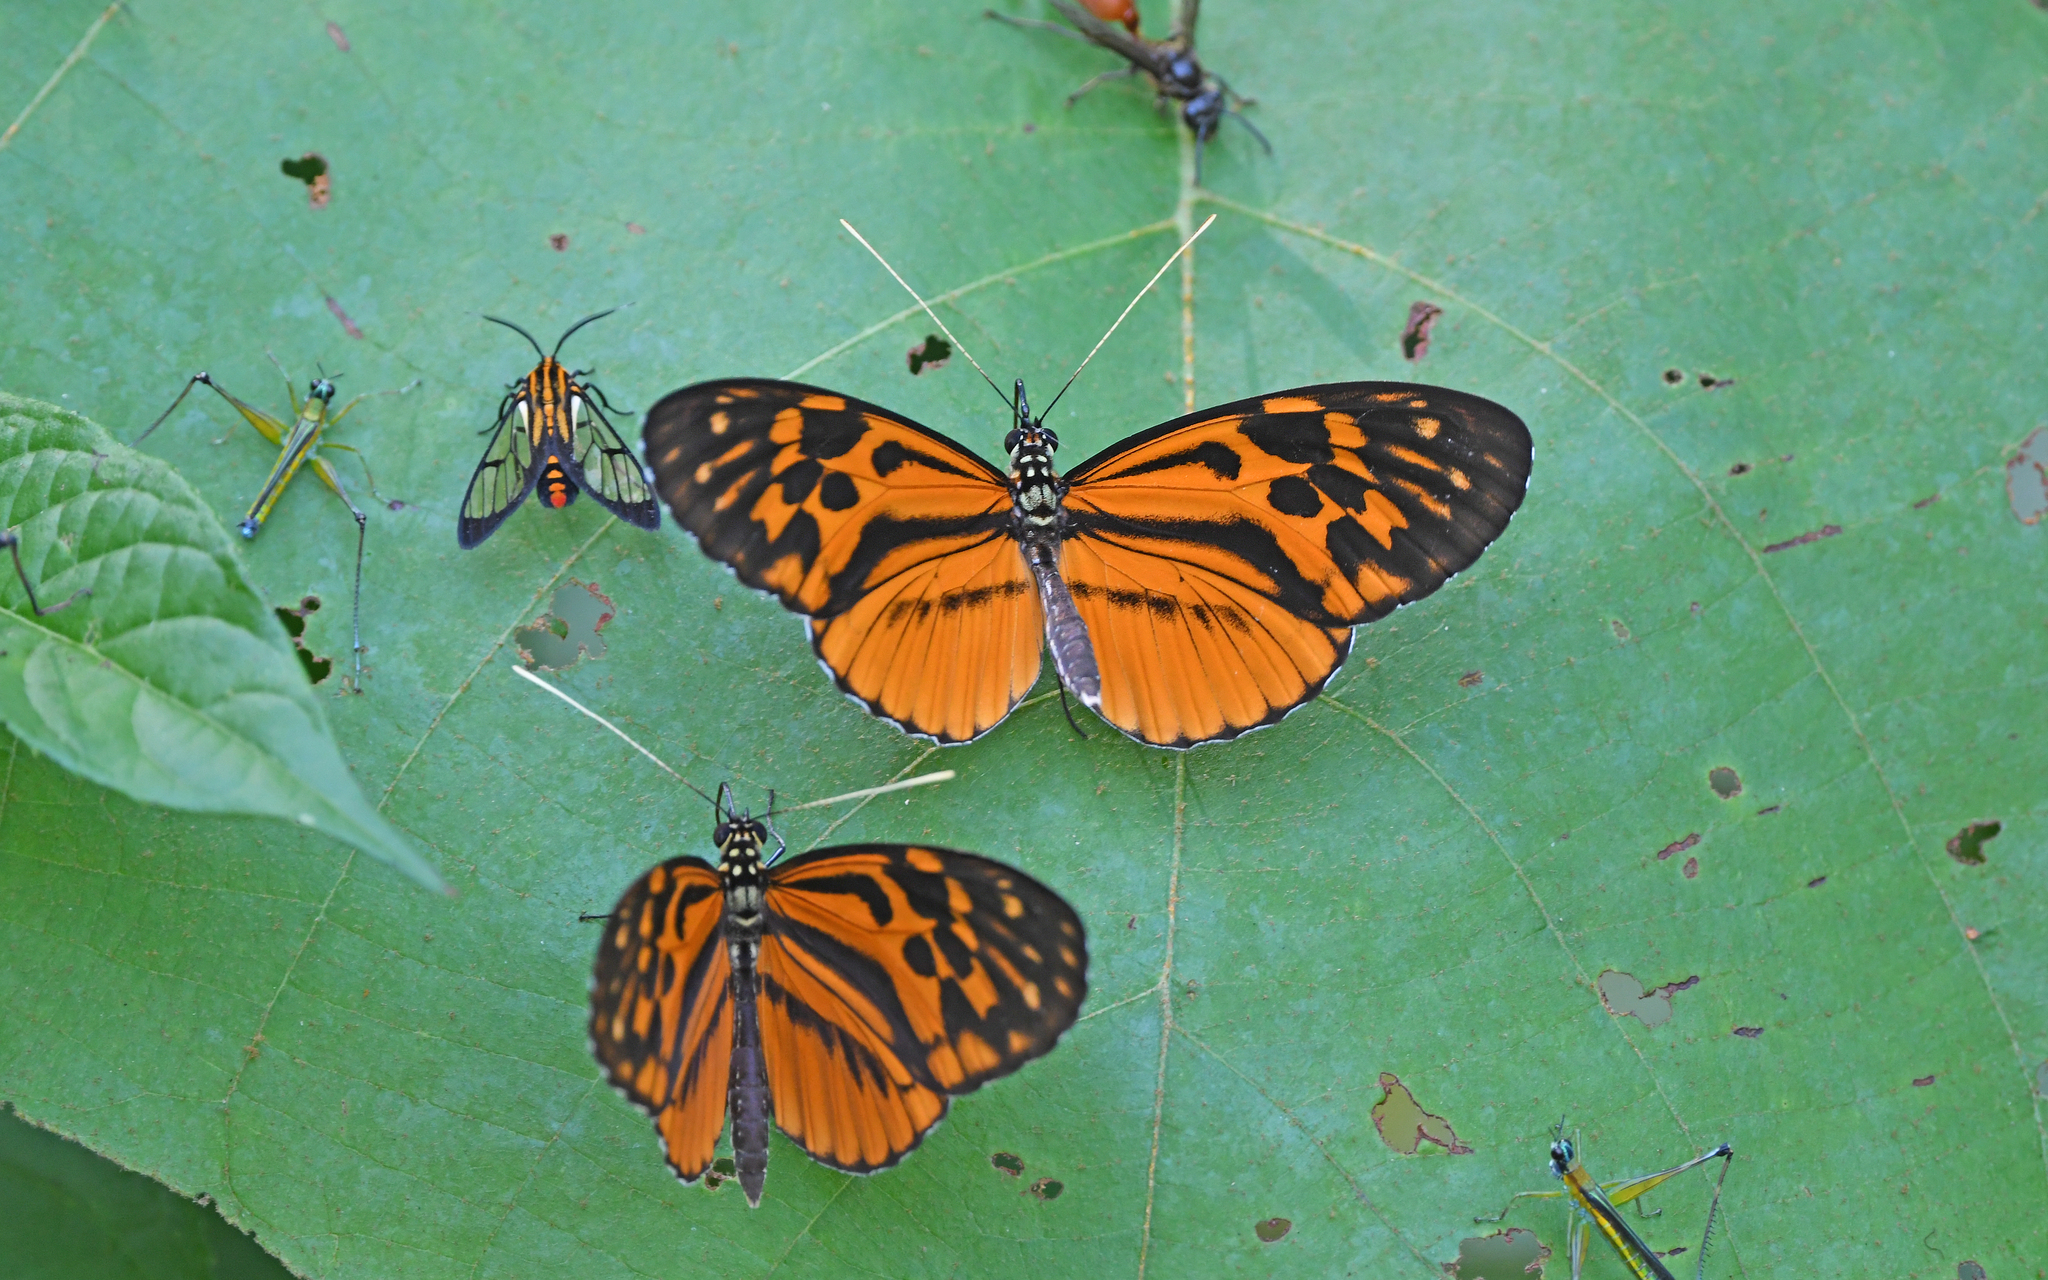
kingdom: Animalia
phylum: Arthropoda
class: Insecta
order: Lepidoptera
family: Nymphalidae
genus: Tithorea
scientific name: Tithorea harmonia
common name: Harmonia tigerwing
